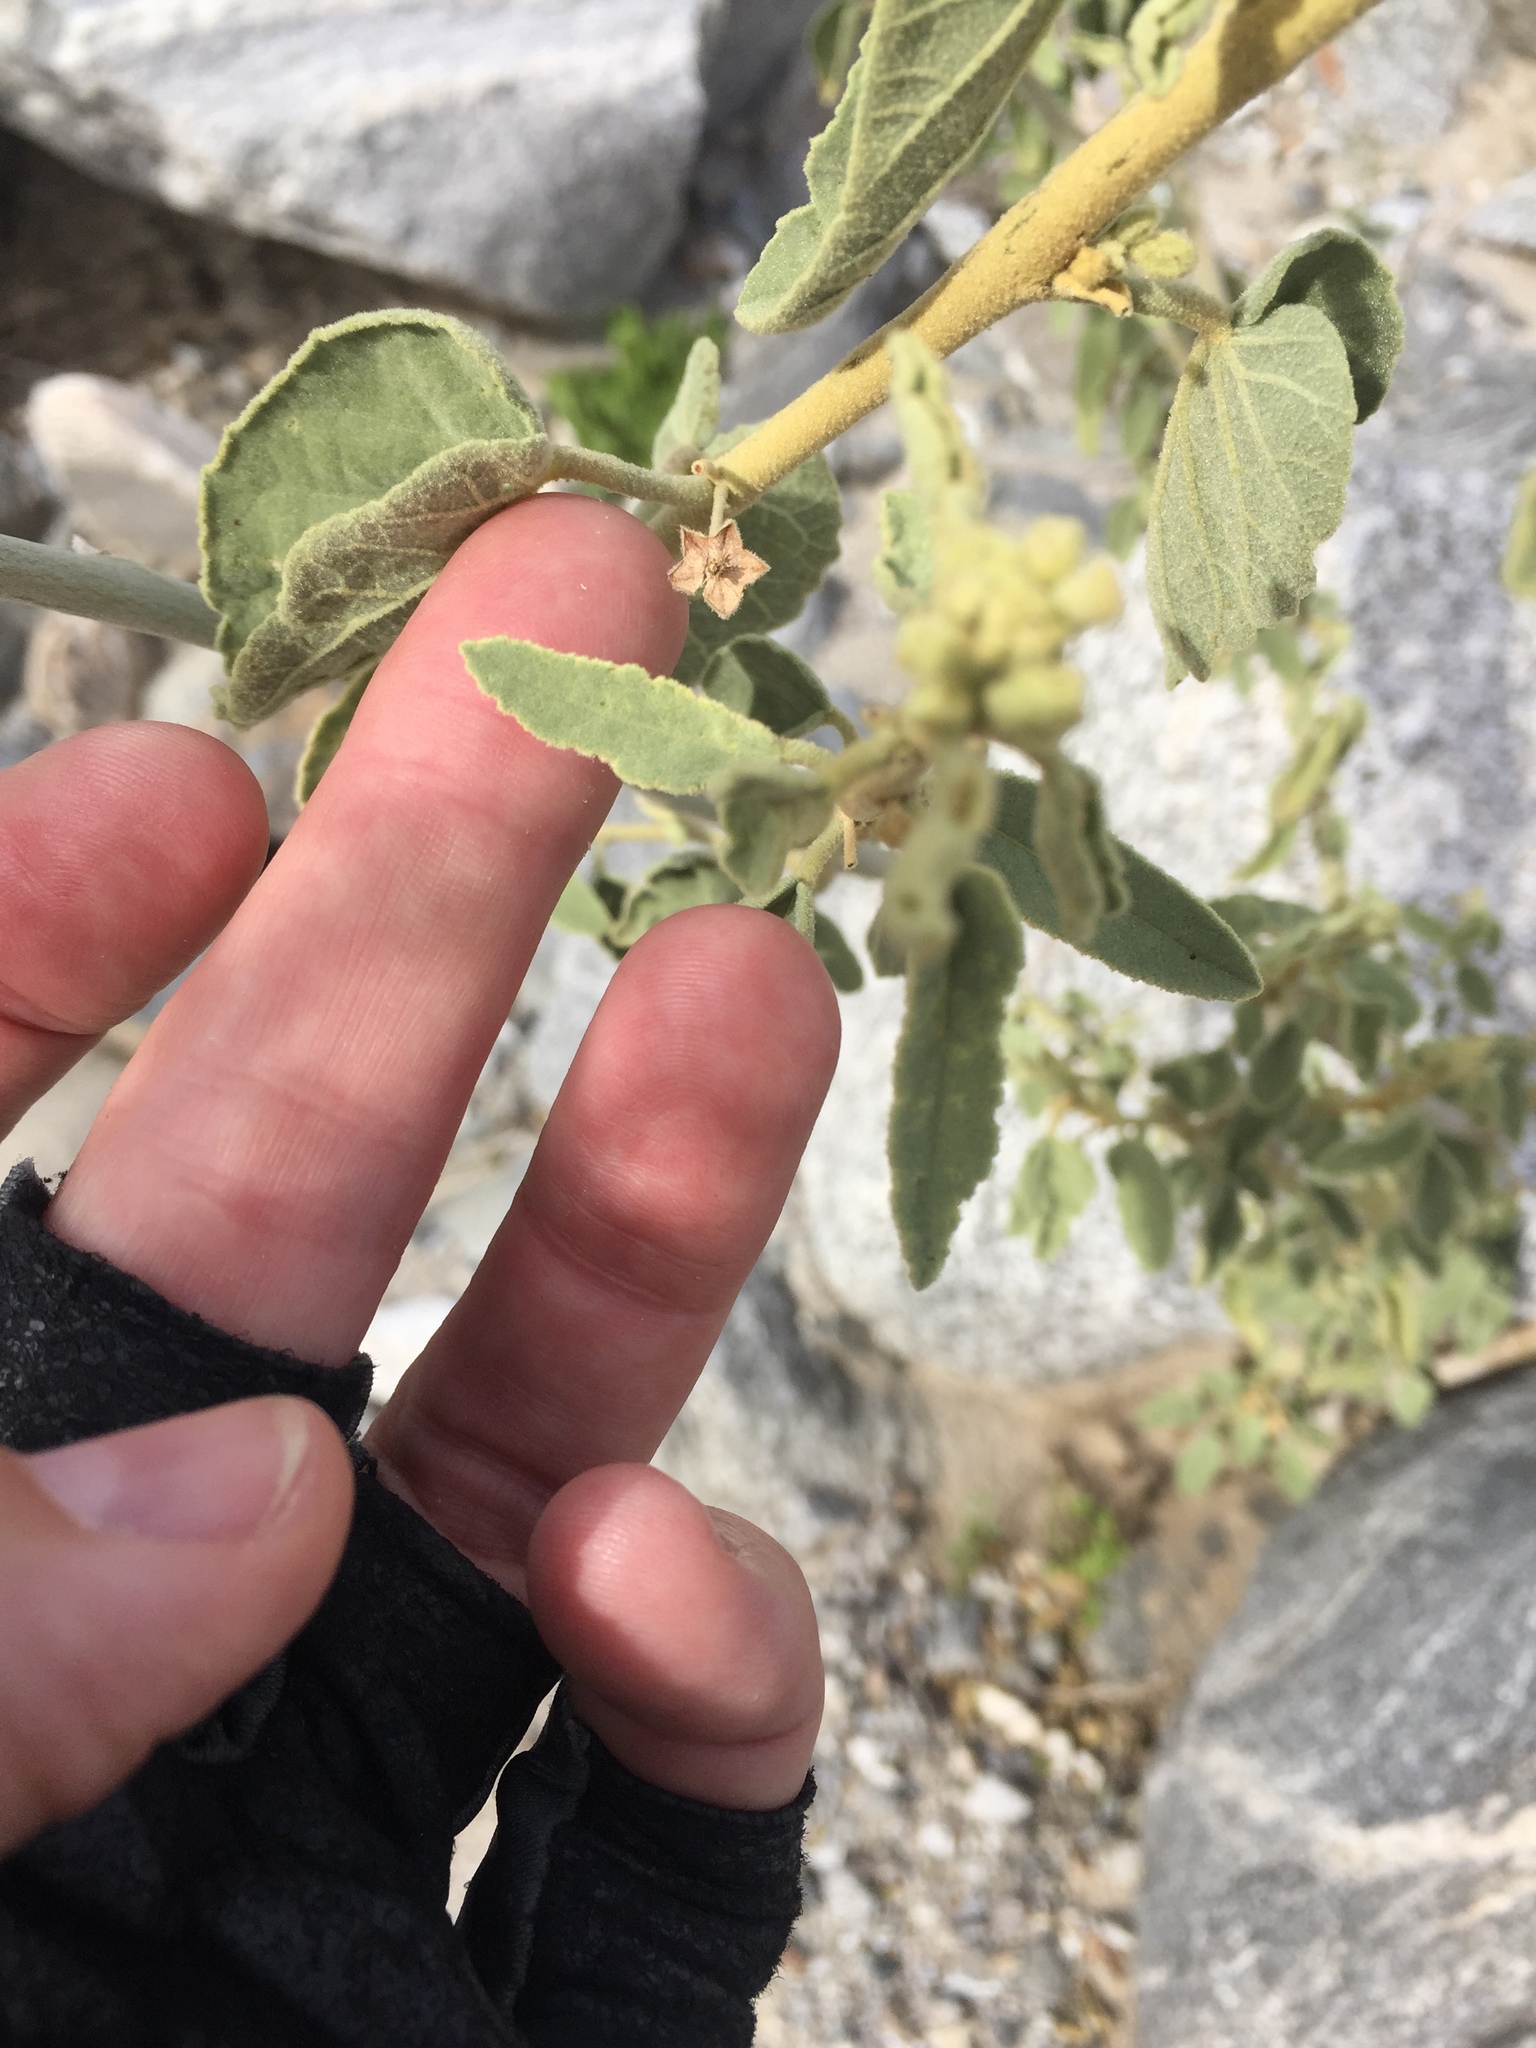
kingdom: Plantae
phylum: Tracheophyta
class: Magnoliopsida
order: Malvales
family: Malvaceae
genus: Horsfordia
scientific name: Horsfordia newberryi
